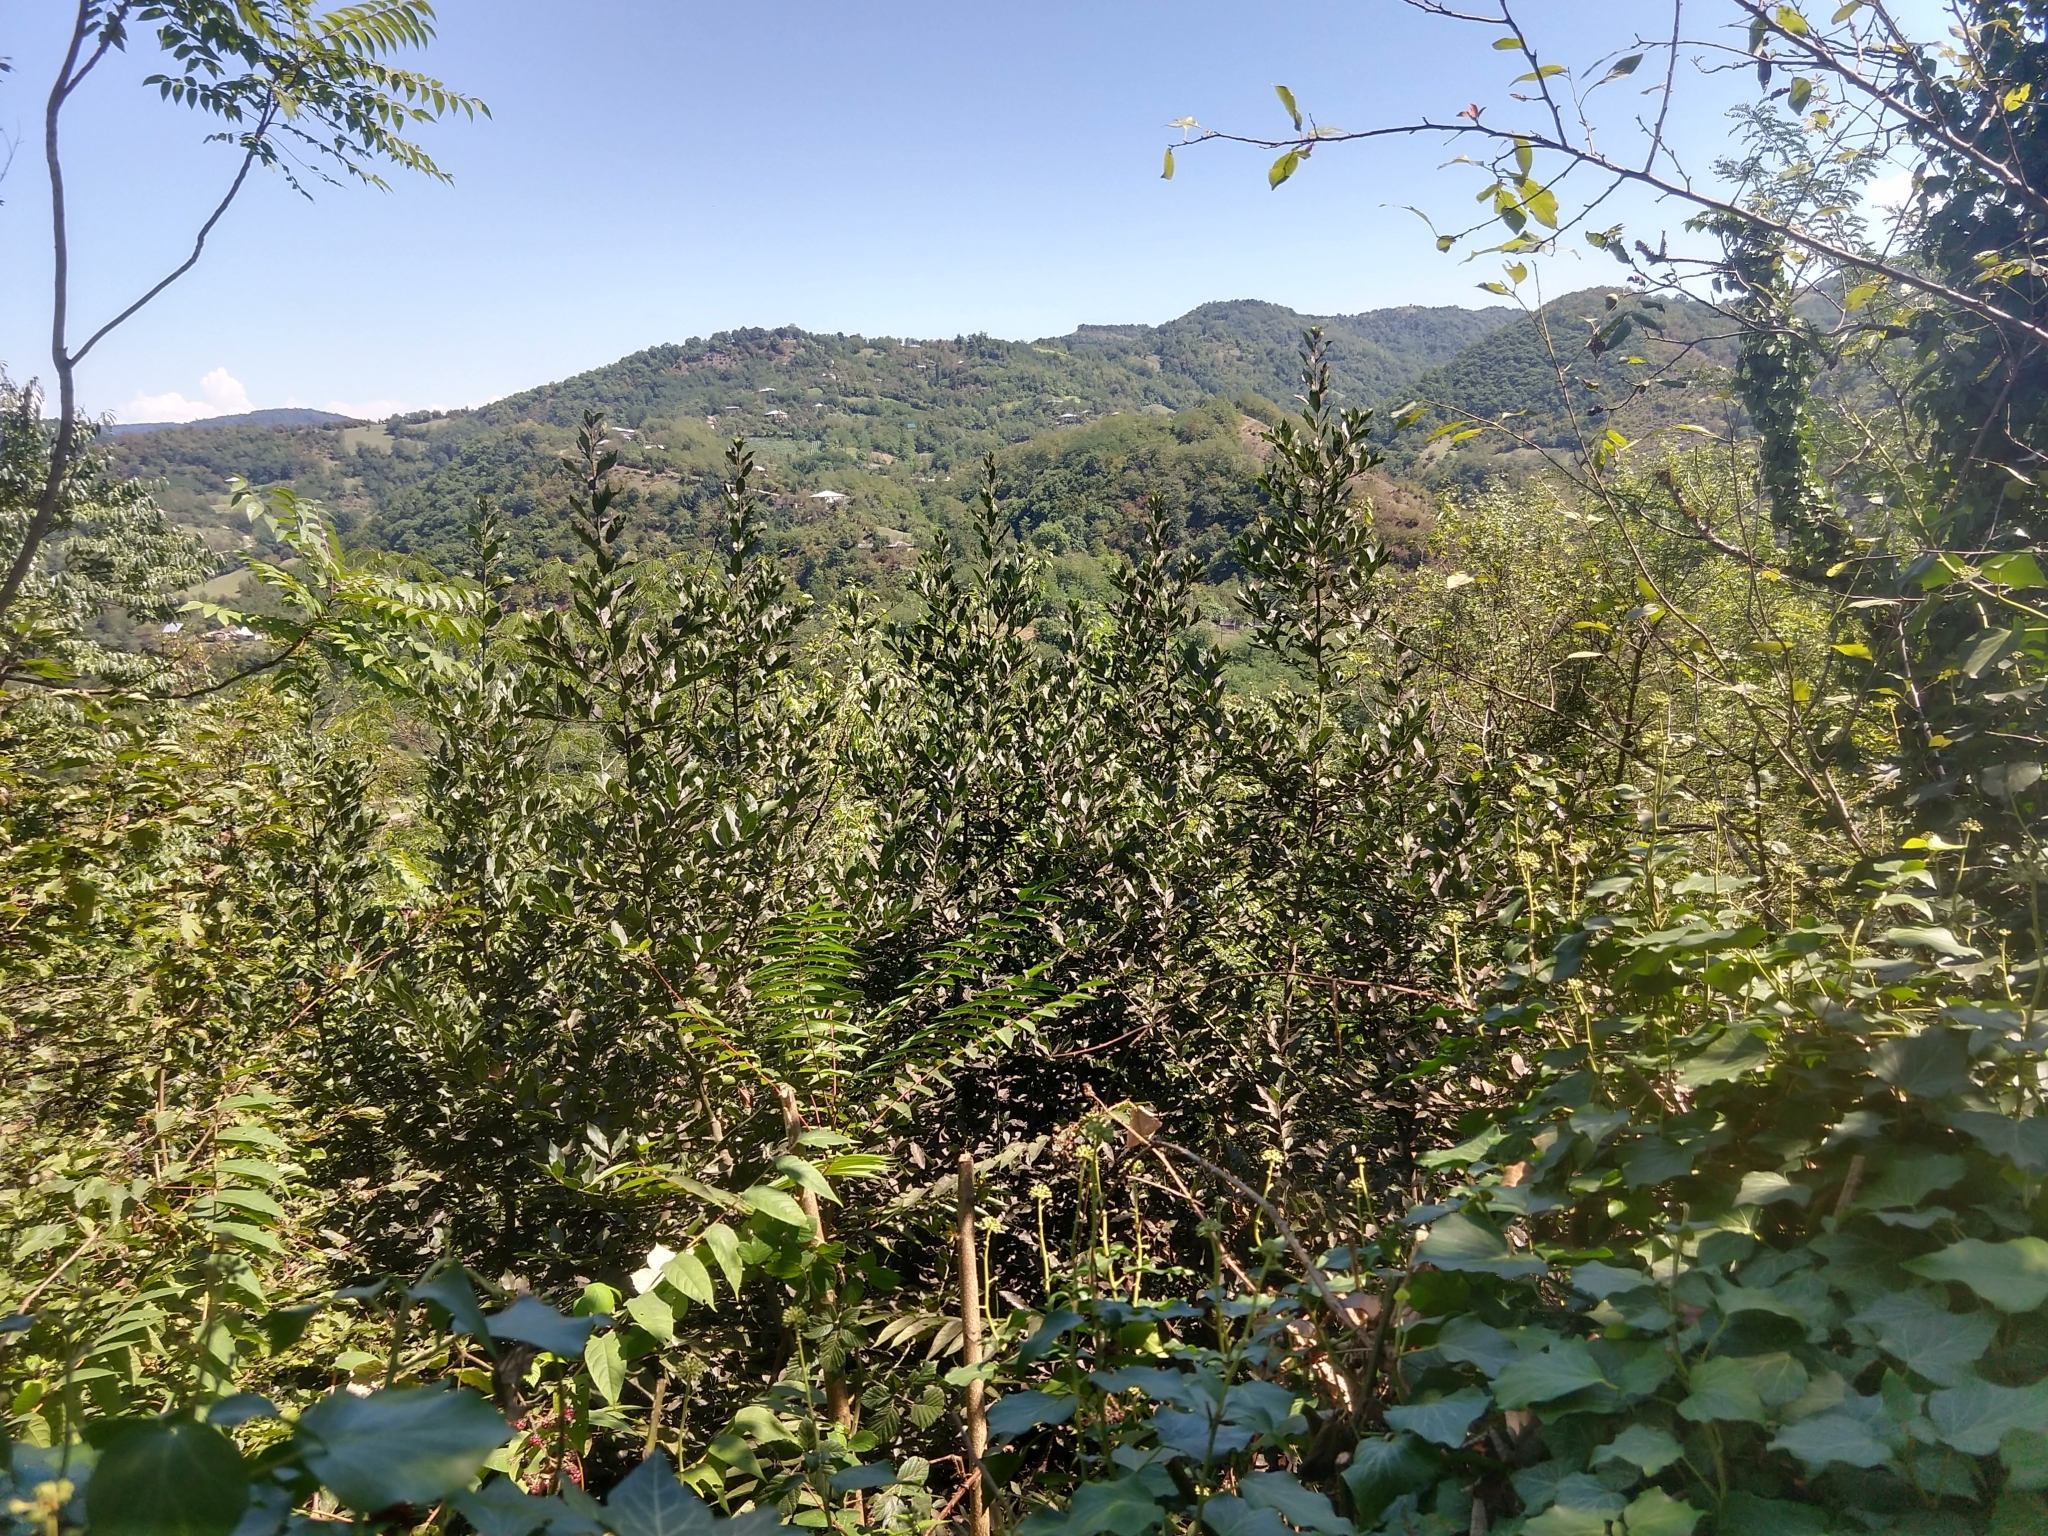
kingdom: Plantae
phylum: Tracheophyta
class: Magnoliopsida
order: Laurales
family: Lauraceae
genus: Laurus
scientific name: Laurus nobilis
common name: Bay
